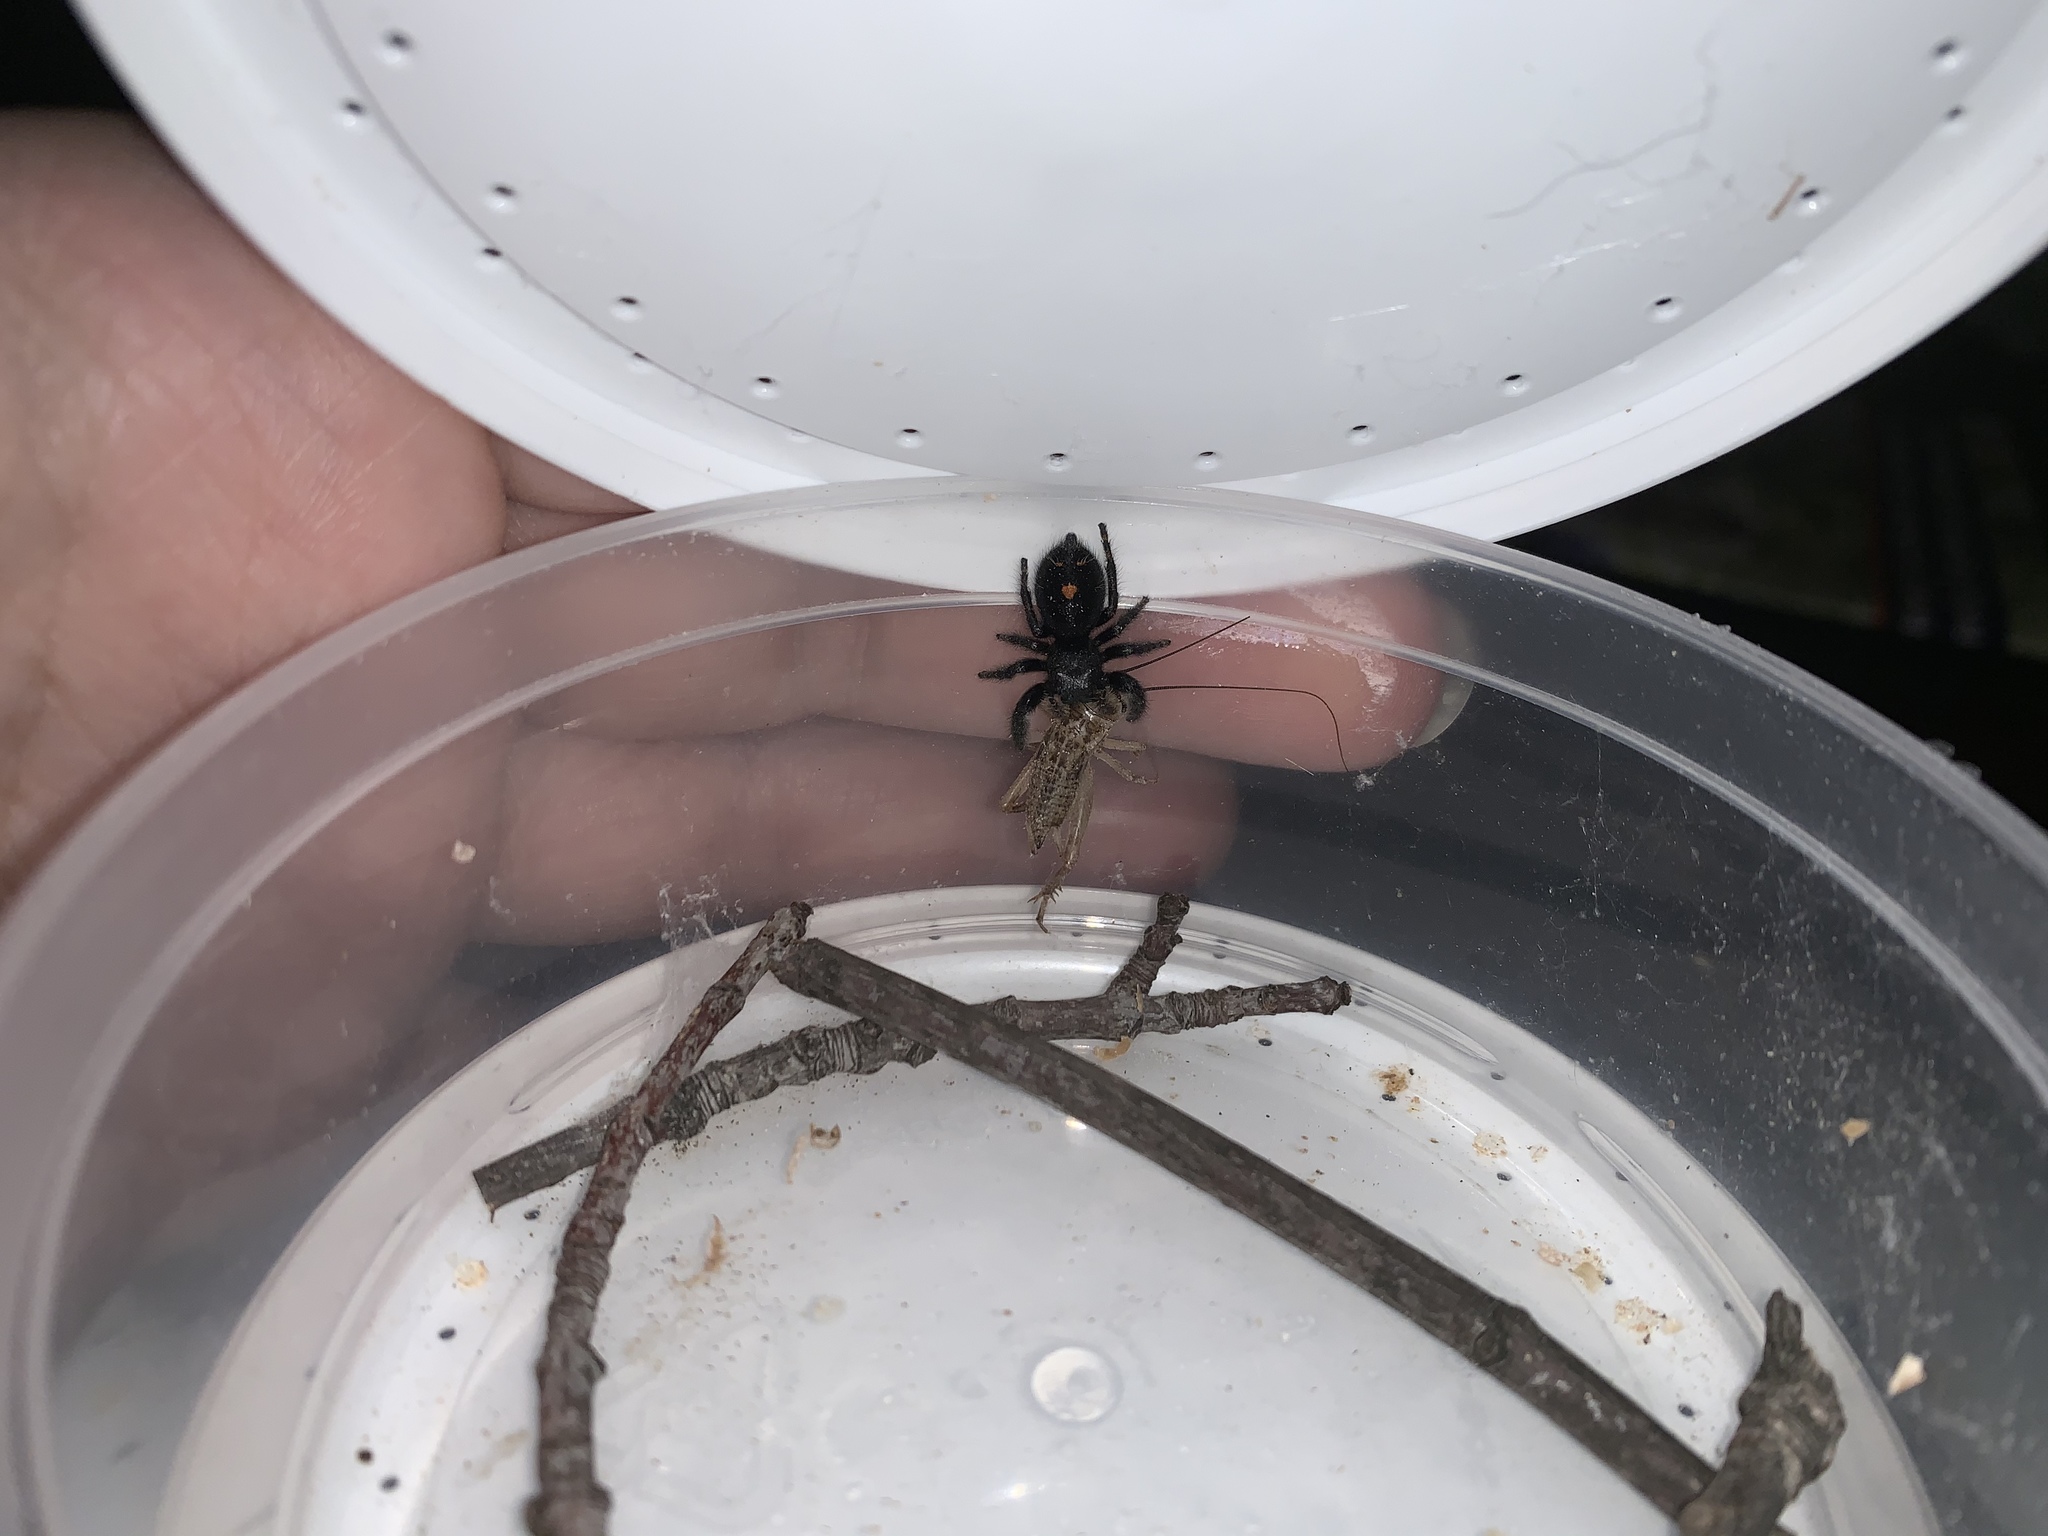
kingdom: Animalia
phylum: Arthropoda
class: Arachnida
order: Araneae
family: Salticidae
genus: Phidippus
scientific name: Phidippus audax
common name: Bold jumper
